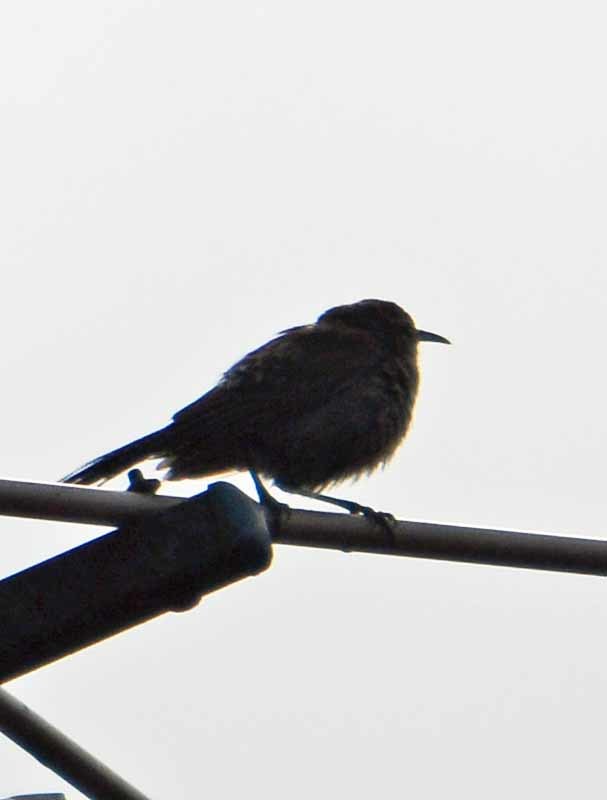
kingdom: Animalia
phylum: Chordata
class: Aves
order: Passeriformes
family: Troglodytidae
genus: Thryomanes
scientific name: Thryomanes bewickii
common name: Bewick's wren
